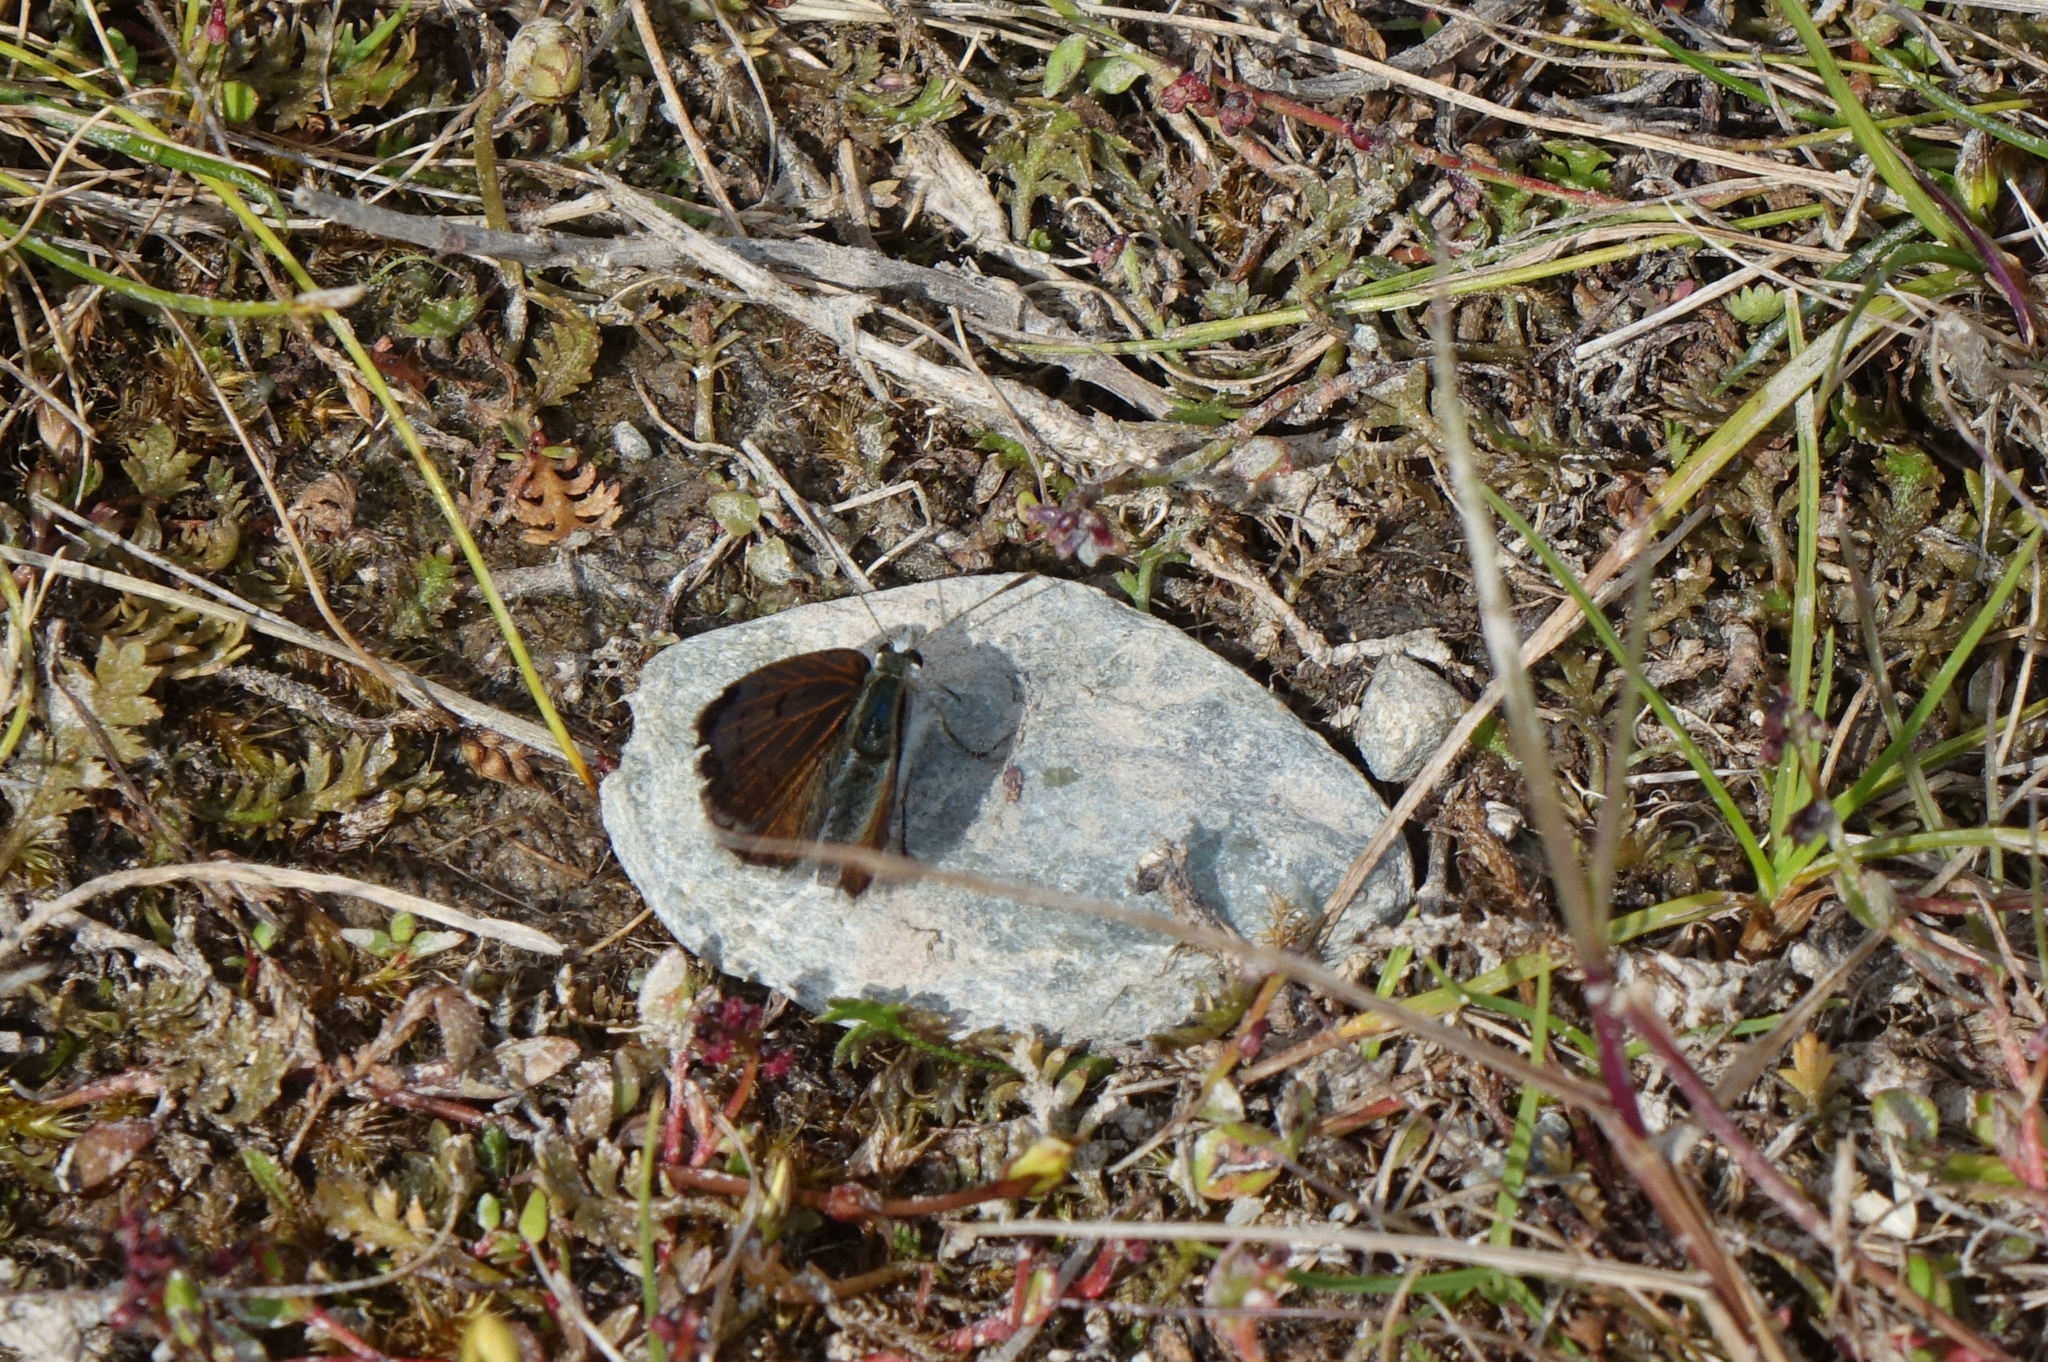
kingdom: Animalia
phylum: Arthropoda
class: Insecta
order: Lepidoptera
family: Lycaenidae
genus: Lycaena
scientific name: Lycaena boldenarum
